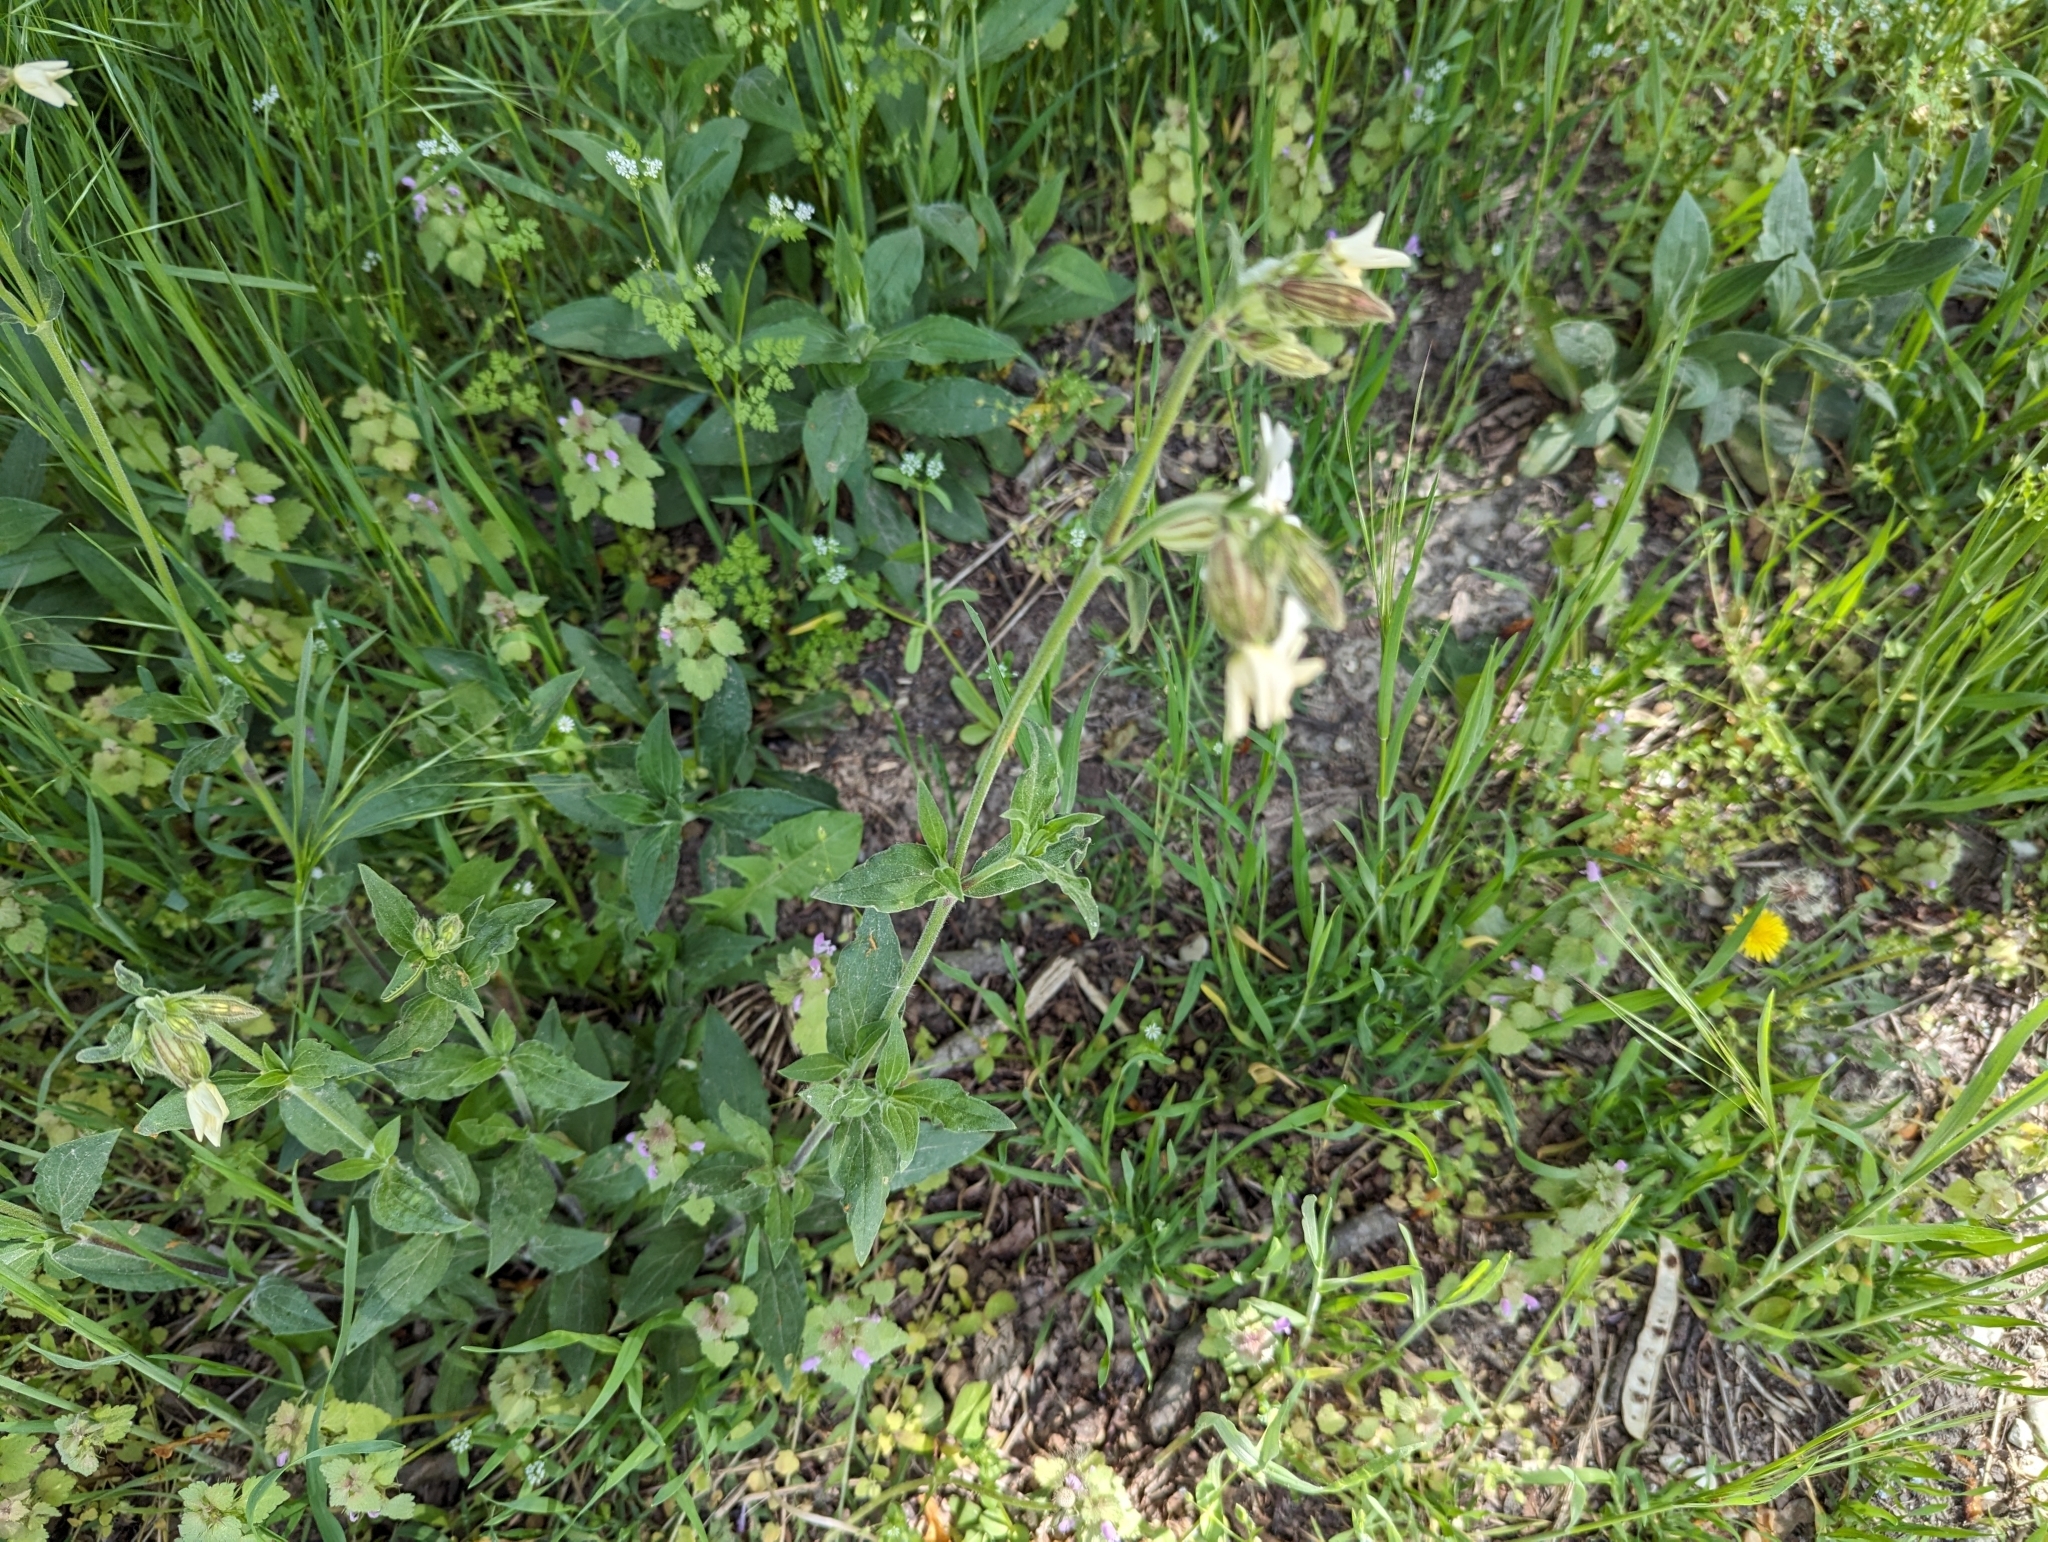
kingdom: Plantae
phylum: Tracheophyta
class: Magnoliopsida
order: Caryophyllales
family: Caryophyllaceae
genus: Silene
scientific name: Silene latifolia
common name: White campion
